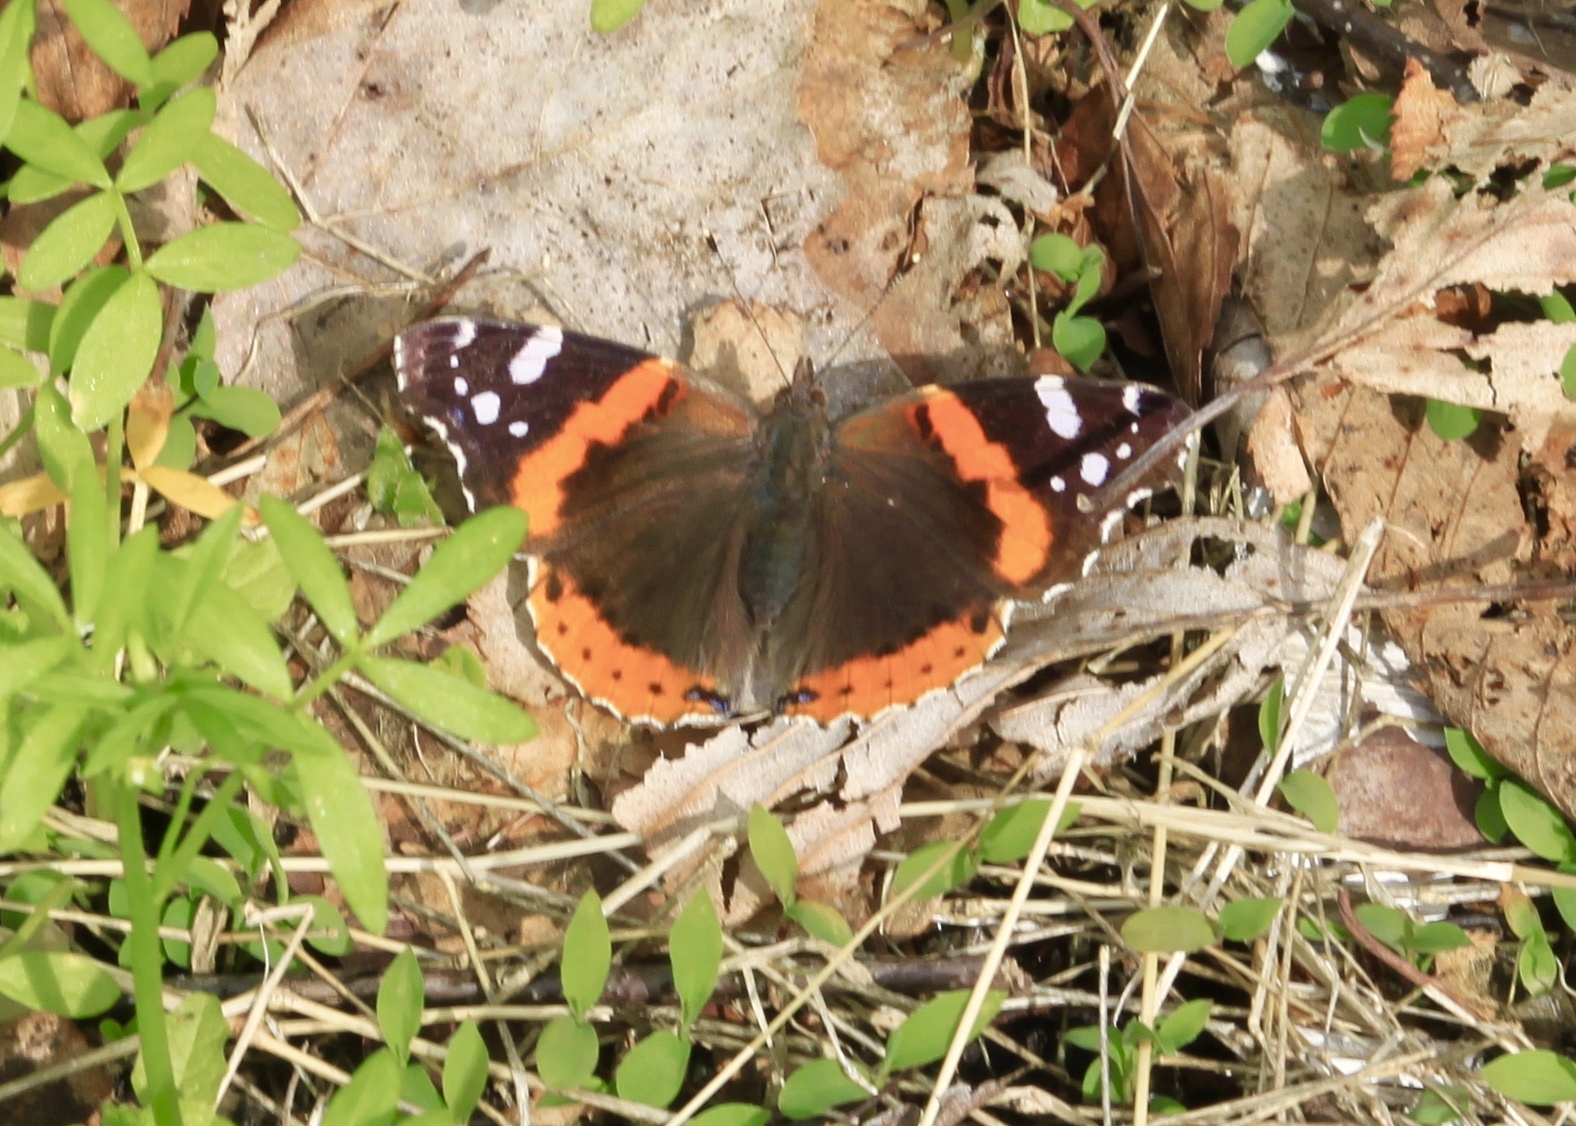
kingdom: Animalia
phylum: Arthropoda
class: Insecta
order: Lepidoptera
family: Nymphalidae
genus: Vanessa
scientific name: Vanessa atalanta
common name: Red admiral
